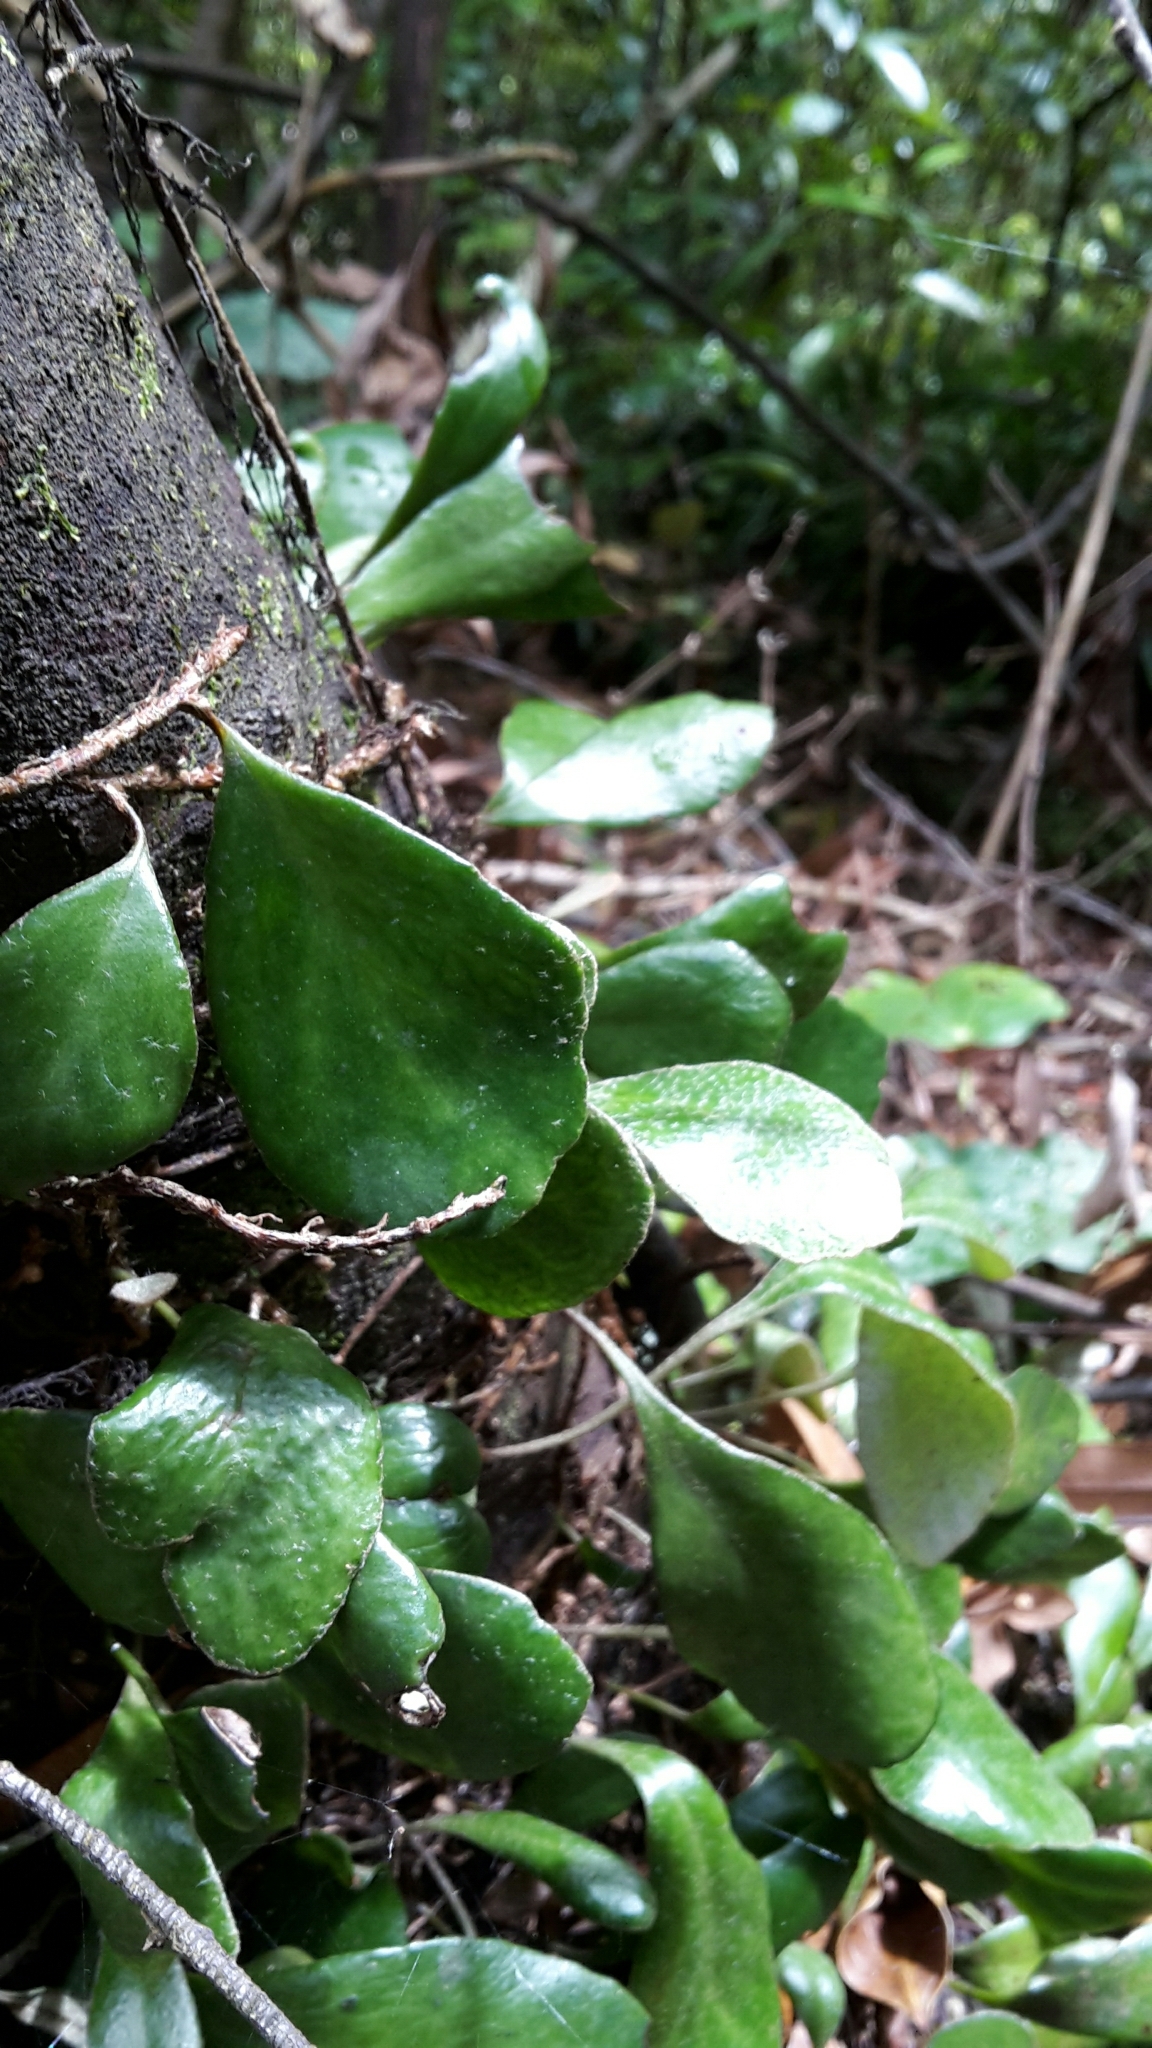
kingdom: Plantae
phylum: Tracheophyta
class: Polypodiopsida
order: Polypodiales
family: Polypodiaceae
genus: Pyrrosia
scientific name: Pyrrosia eleagnifolia
